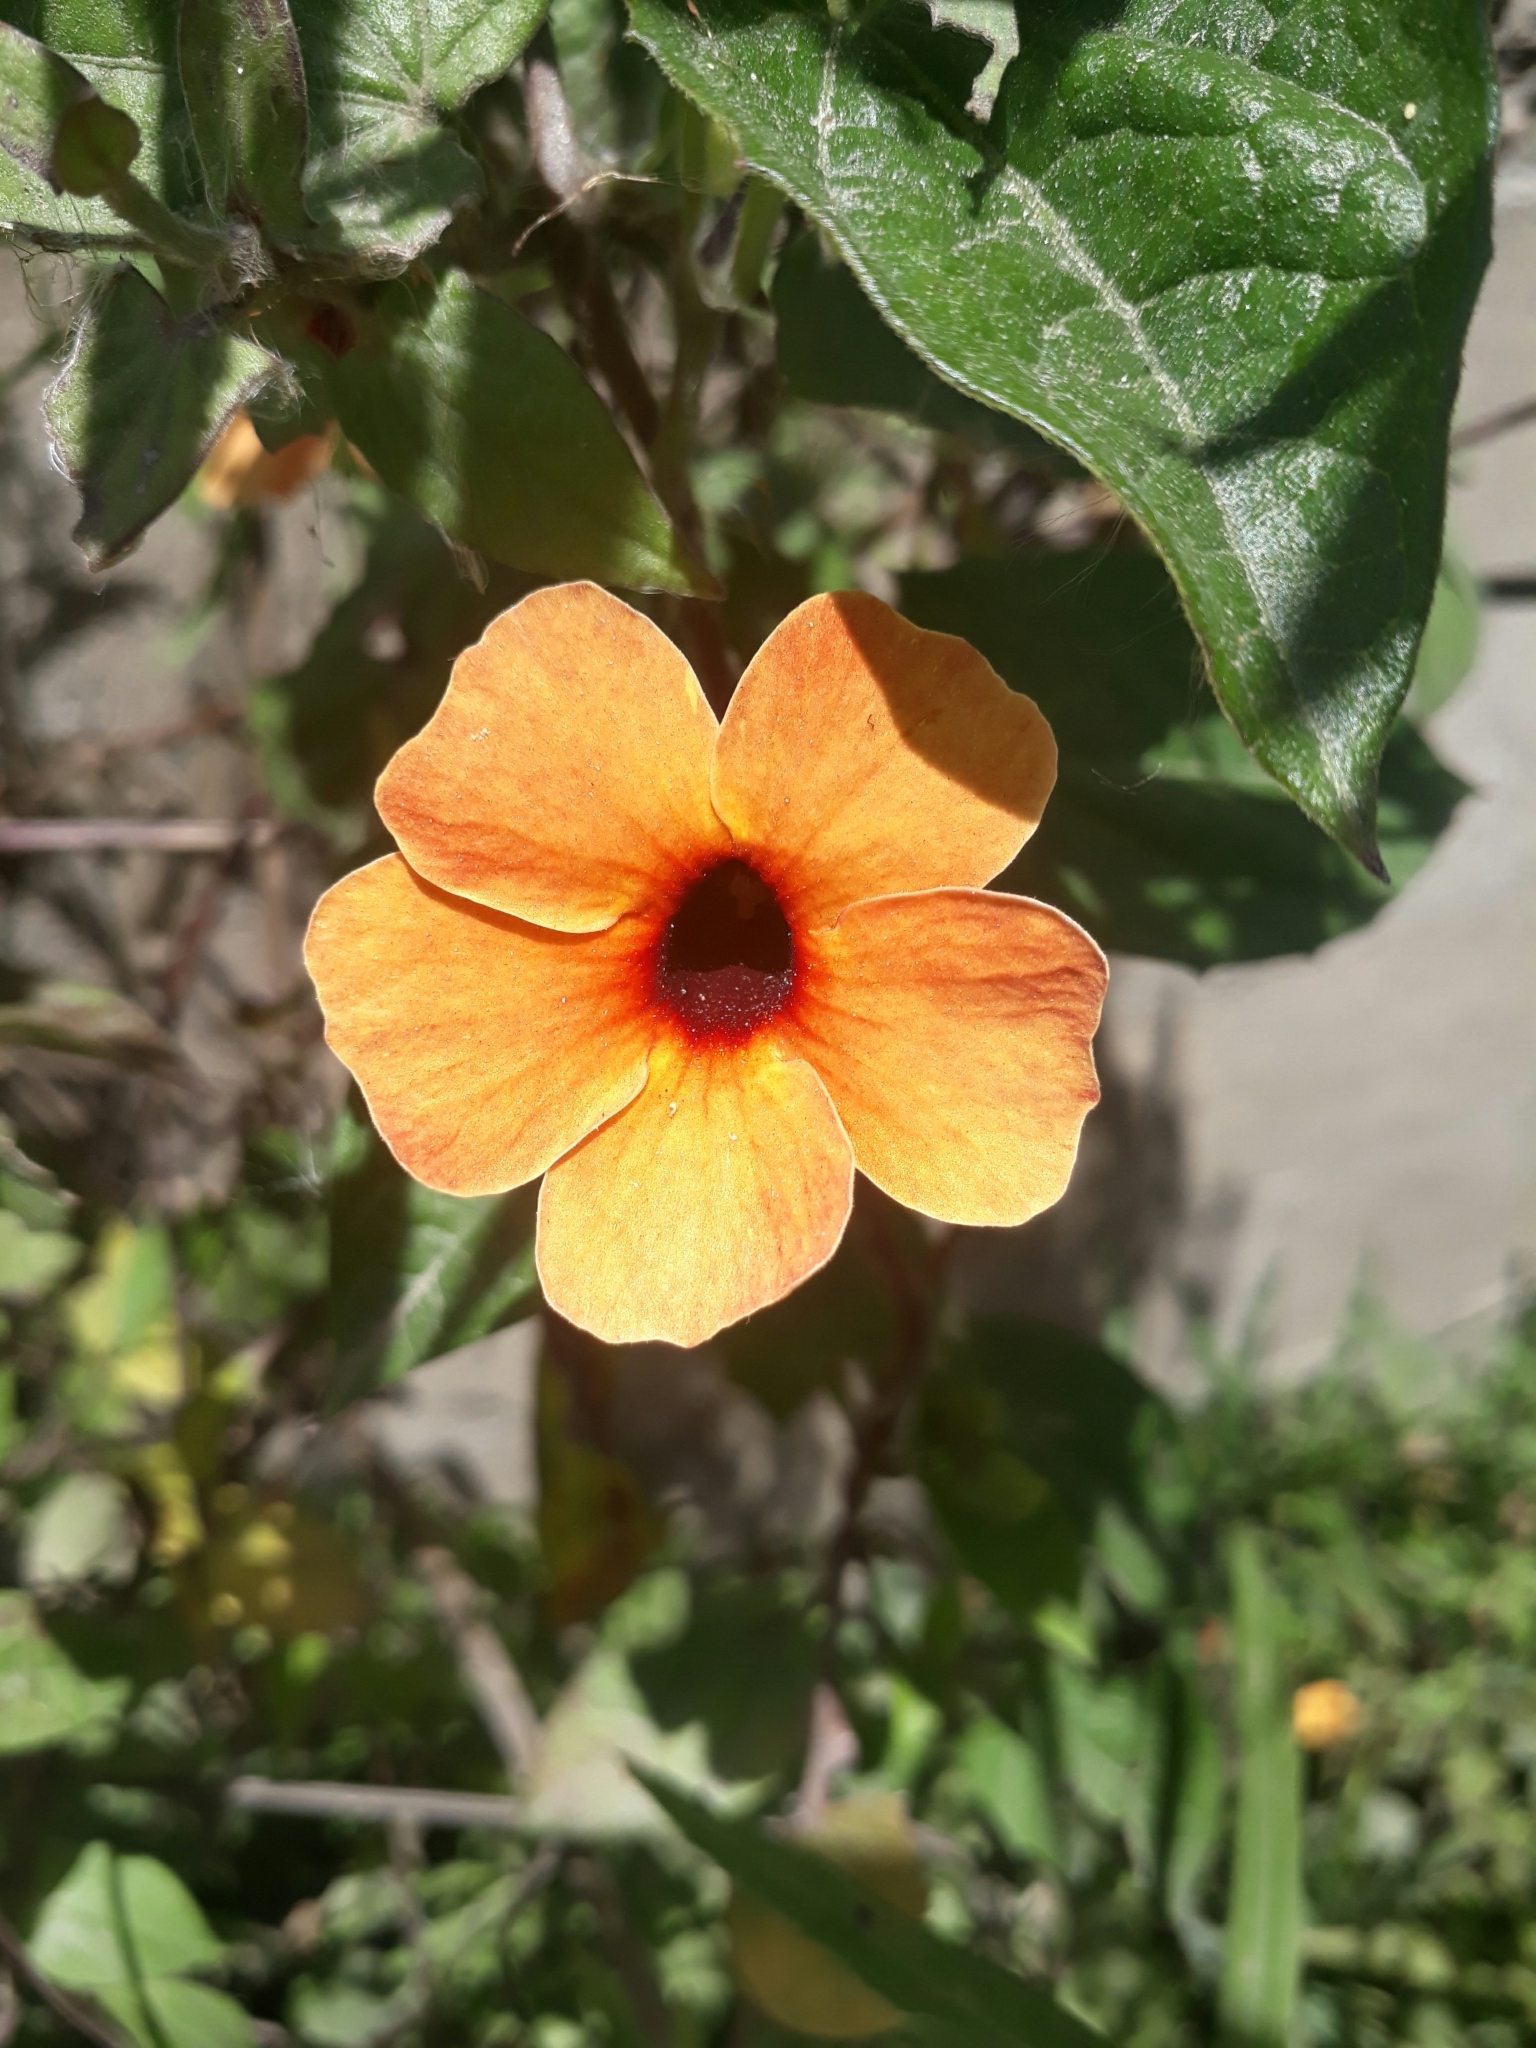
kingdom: Plantae
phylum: Tracheophyta
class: Magnoliopsida
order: Lamiales
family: Acanthaceae
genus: Thunbergia
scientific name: Thunbergia alata
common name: Blackeyed susan vine
